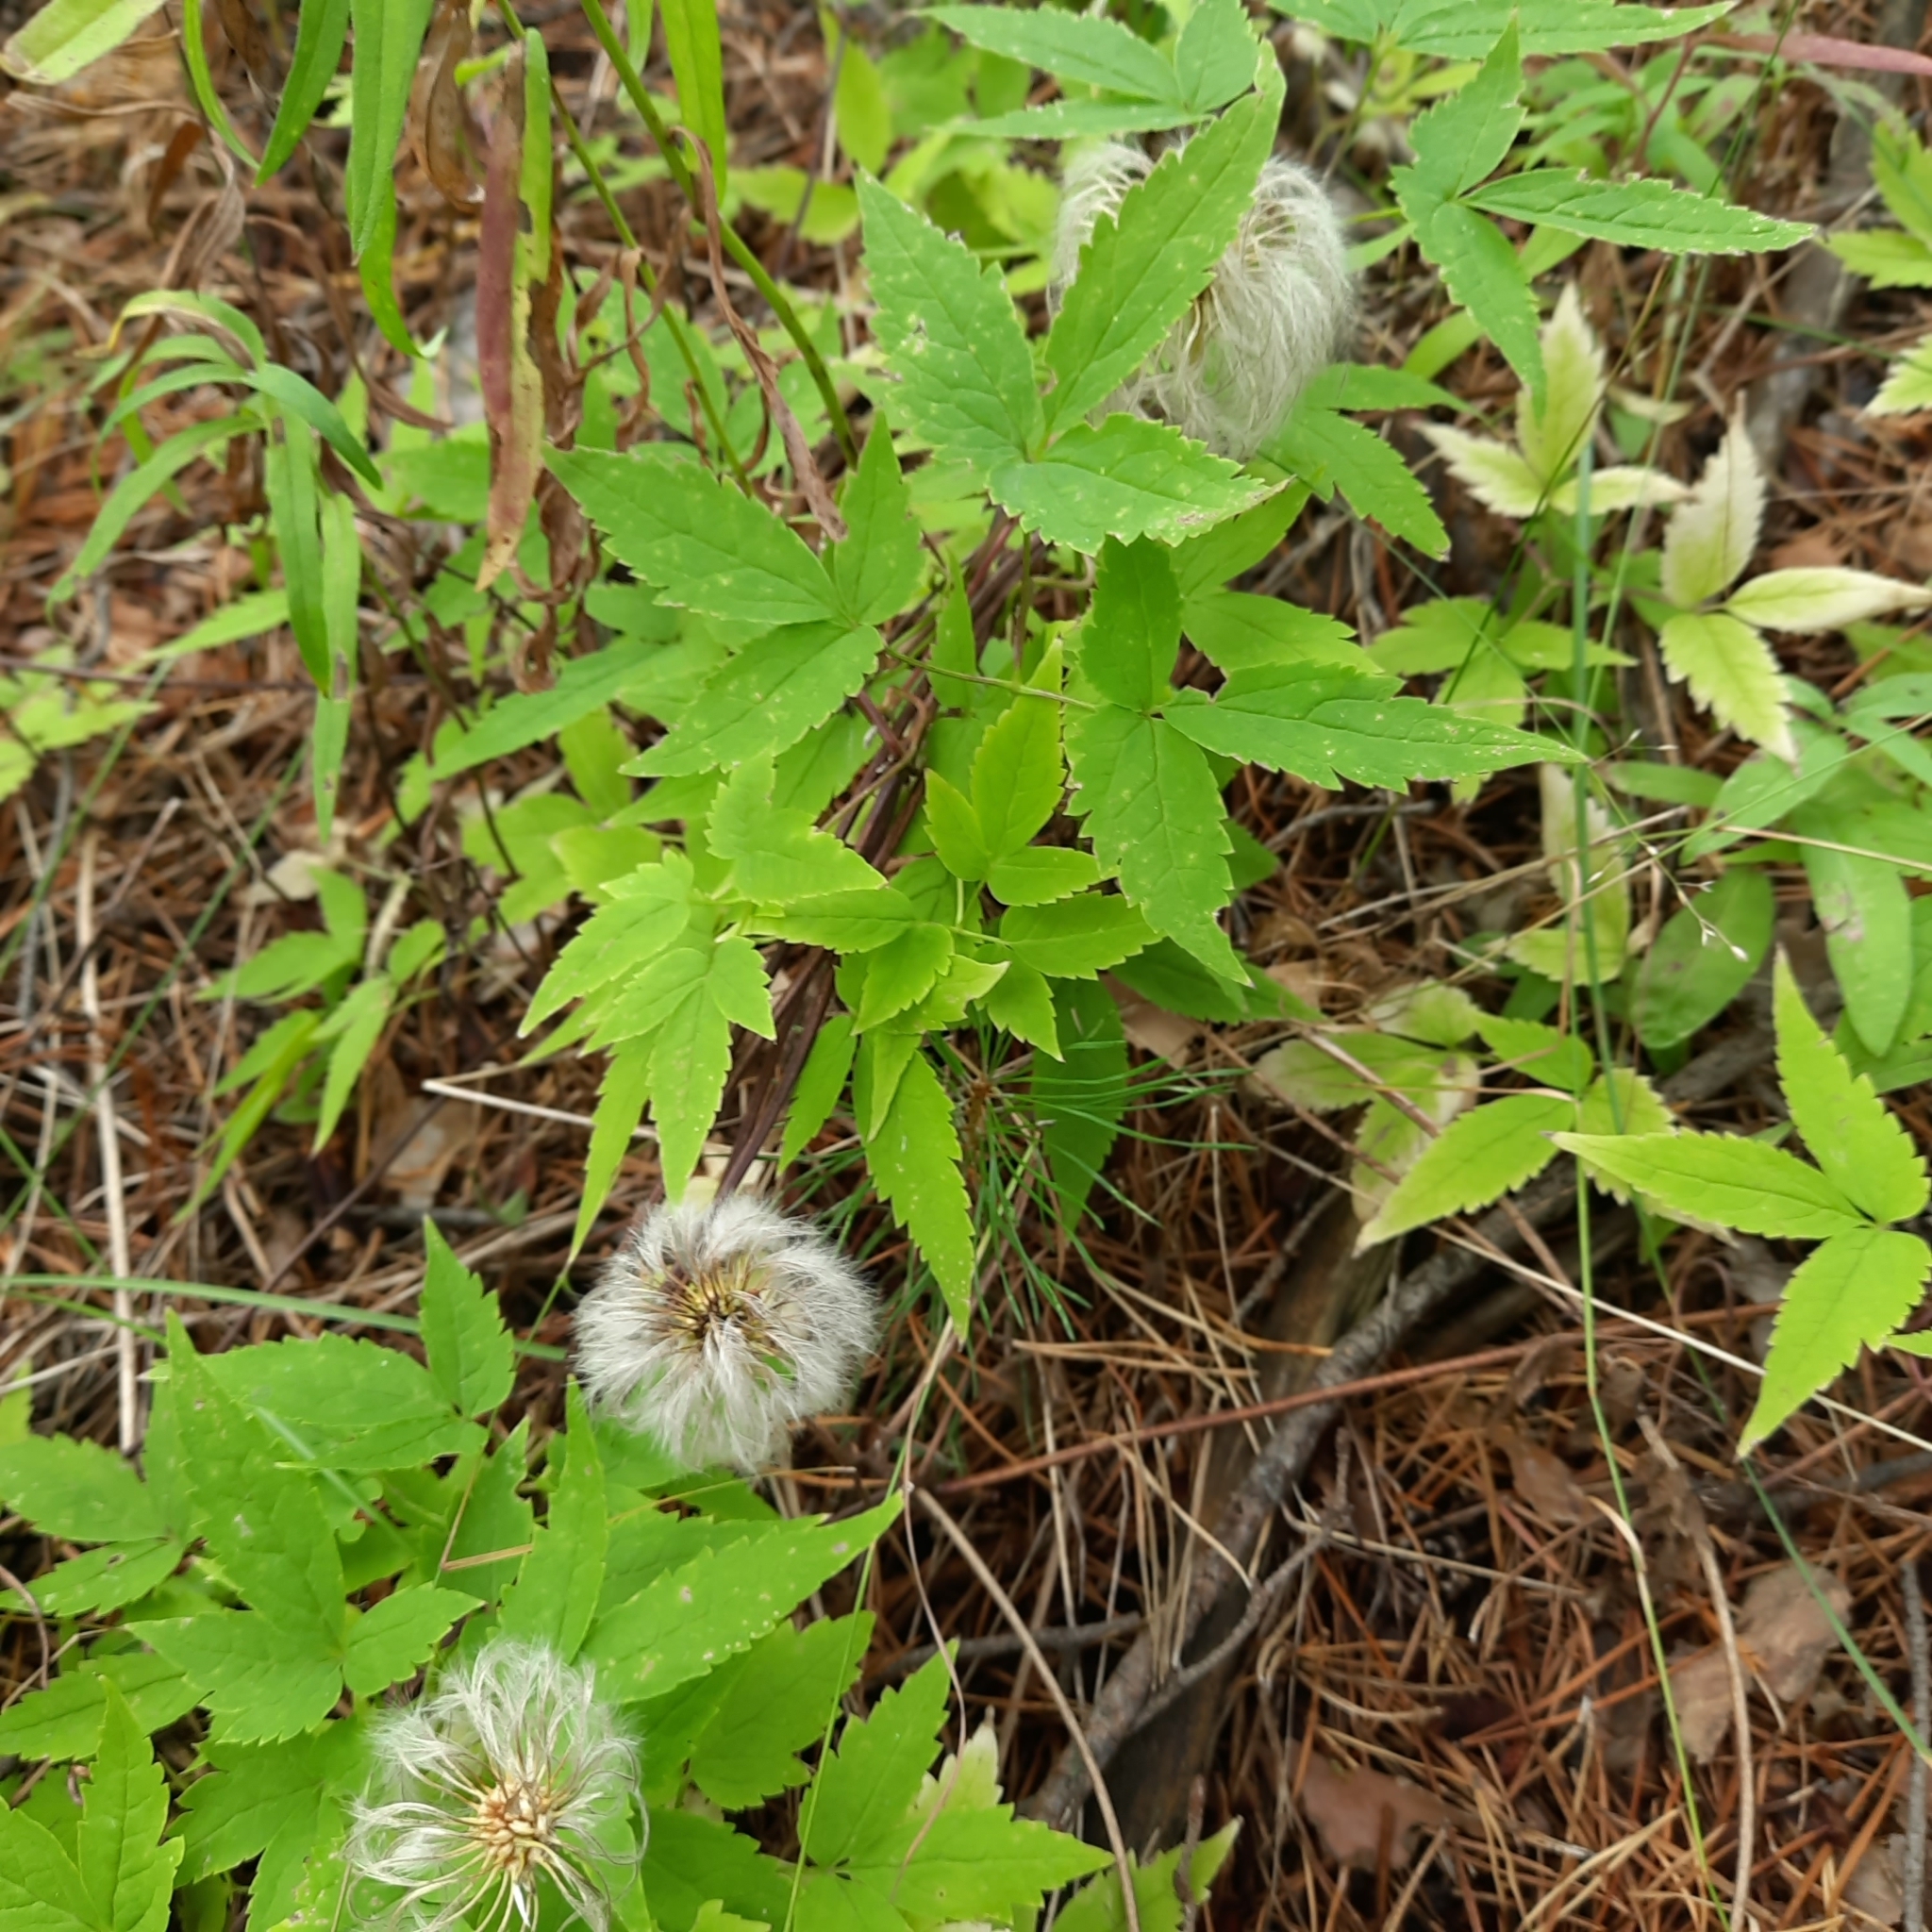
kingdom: Plantae
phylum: Tracheophyta
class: Magnoliopsida
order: Ranunculales
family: Ranunculaceae
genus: Clematis
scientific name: Clematis sibirica
